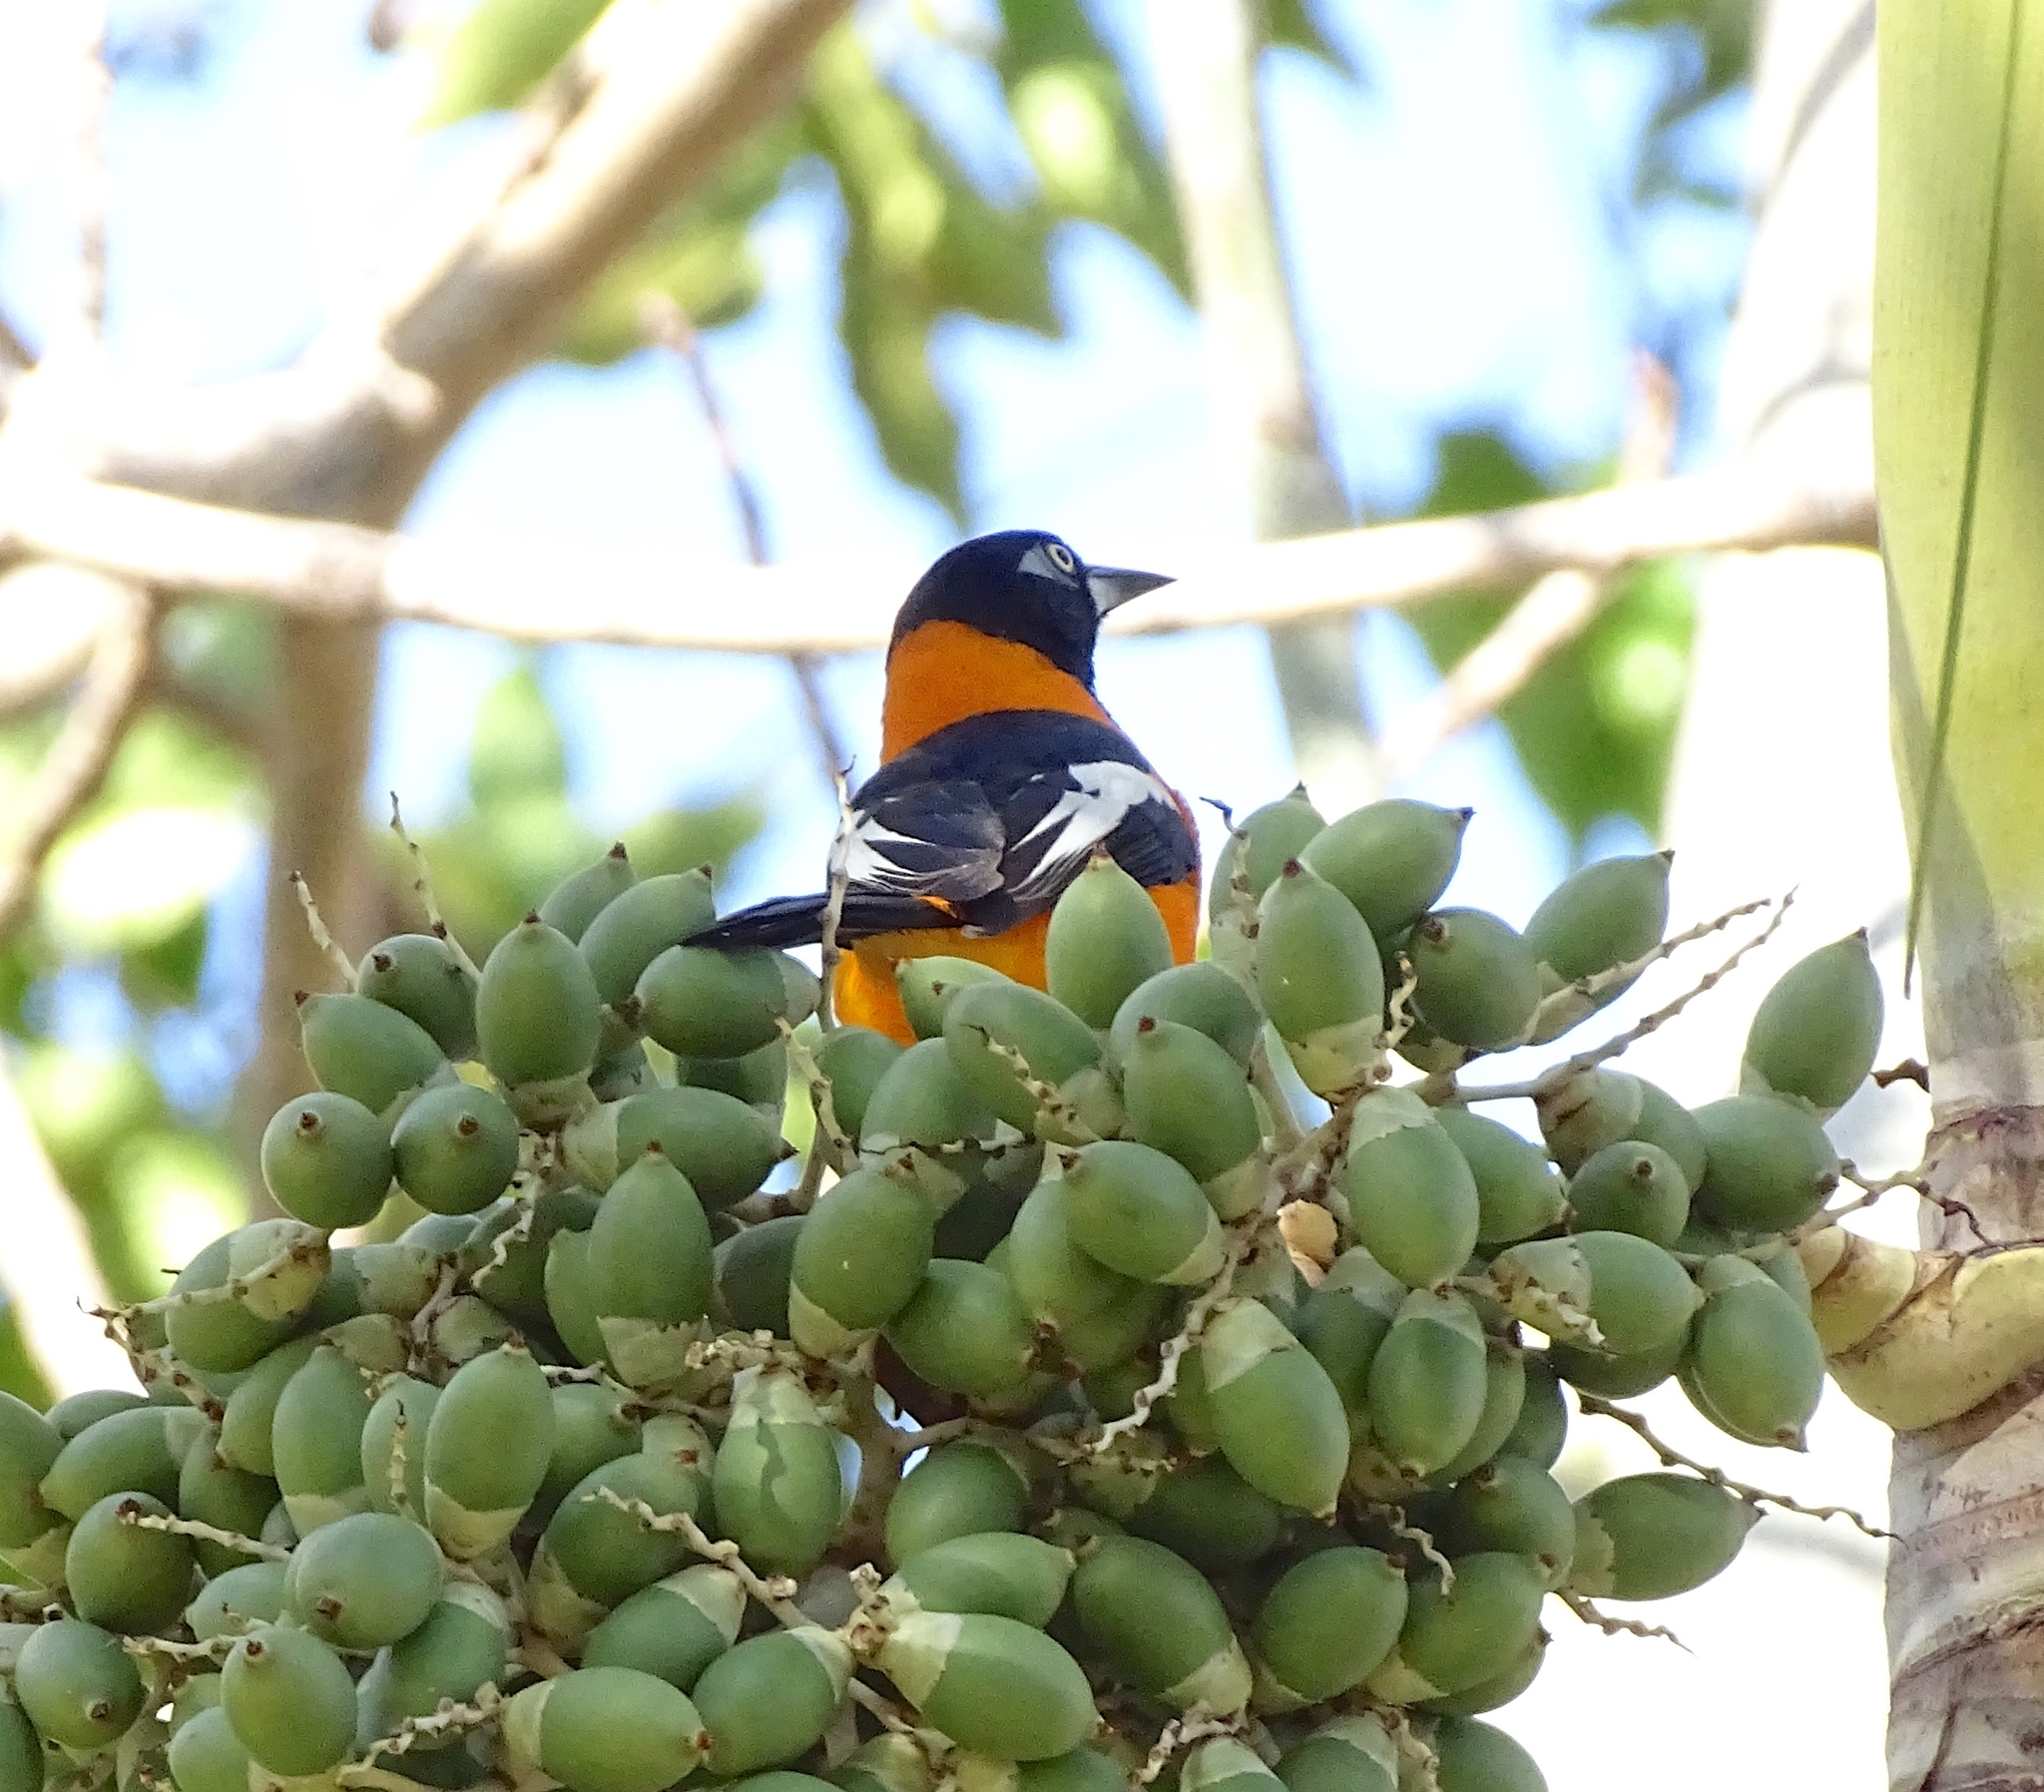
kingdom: Animalia
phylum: Chordata
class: Aves
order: Passeriformes
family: Icteridae
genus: Icterus
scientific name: Icterus icterus
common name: Venezuelan troupial
